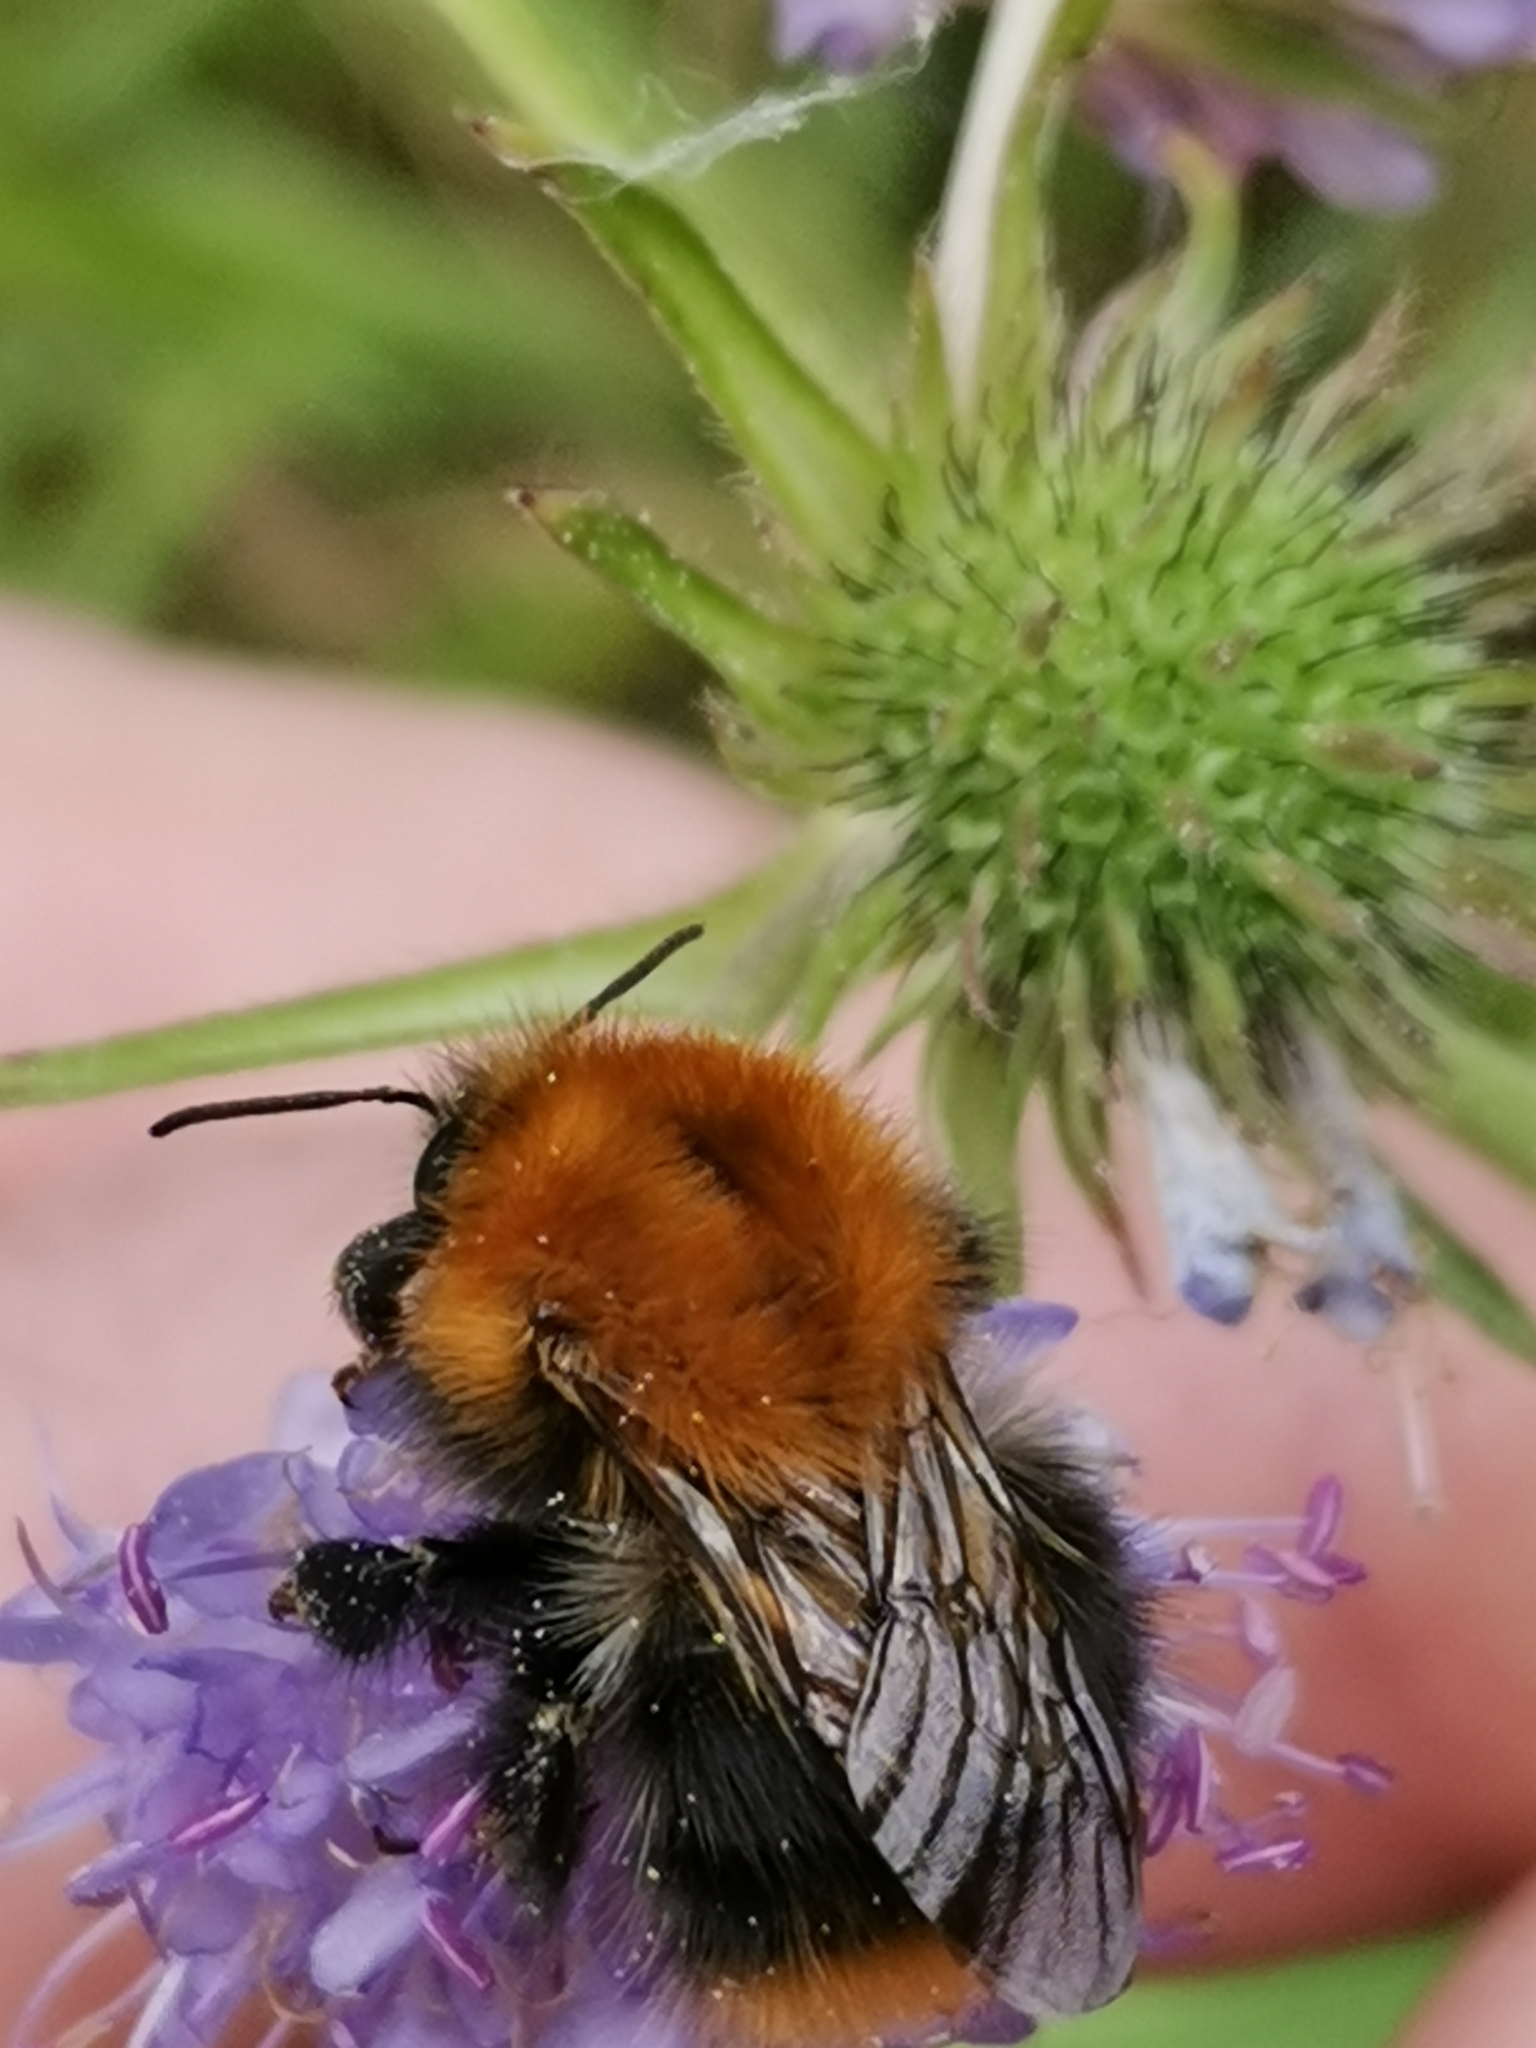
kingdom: Animalia
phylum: Arthropoda
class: Insecta
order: Hymenoptera
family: Apidae
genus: Bombus
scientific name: Bombus pascuorum
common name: Common carder bee
